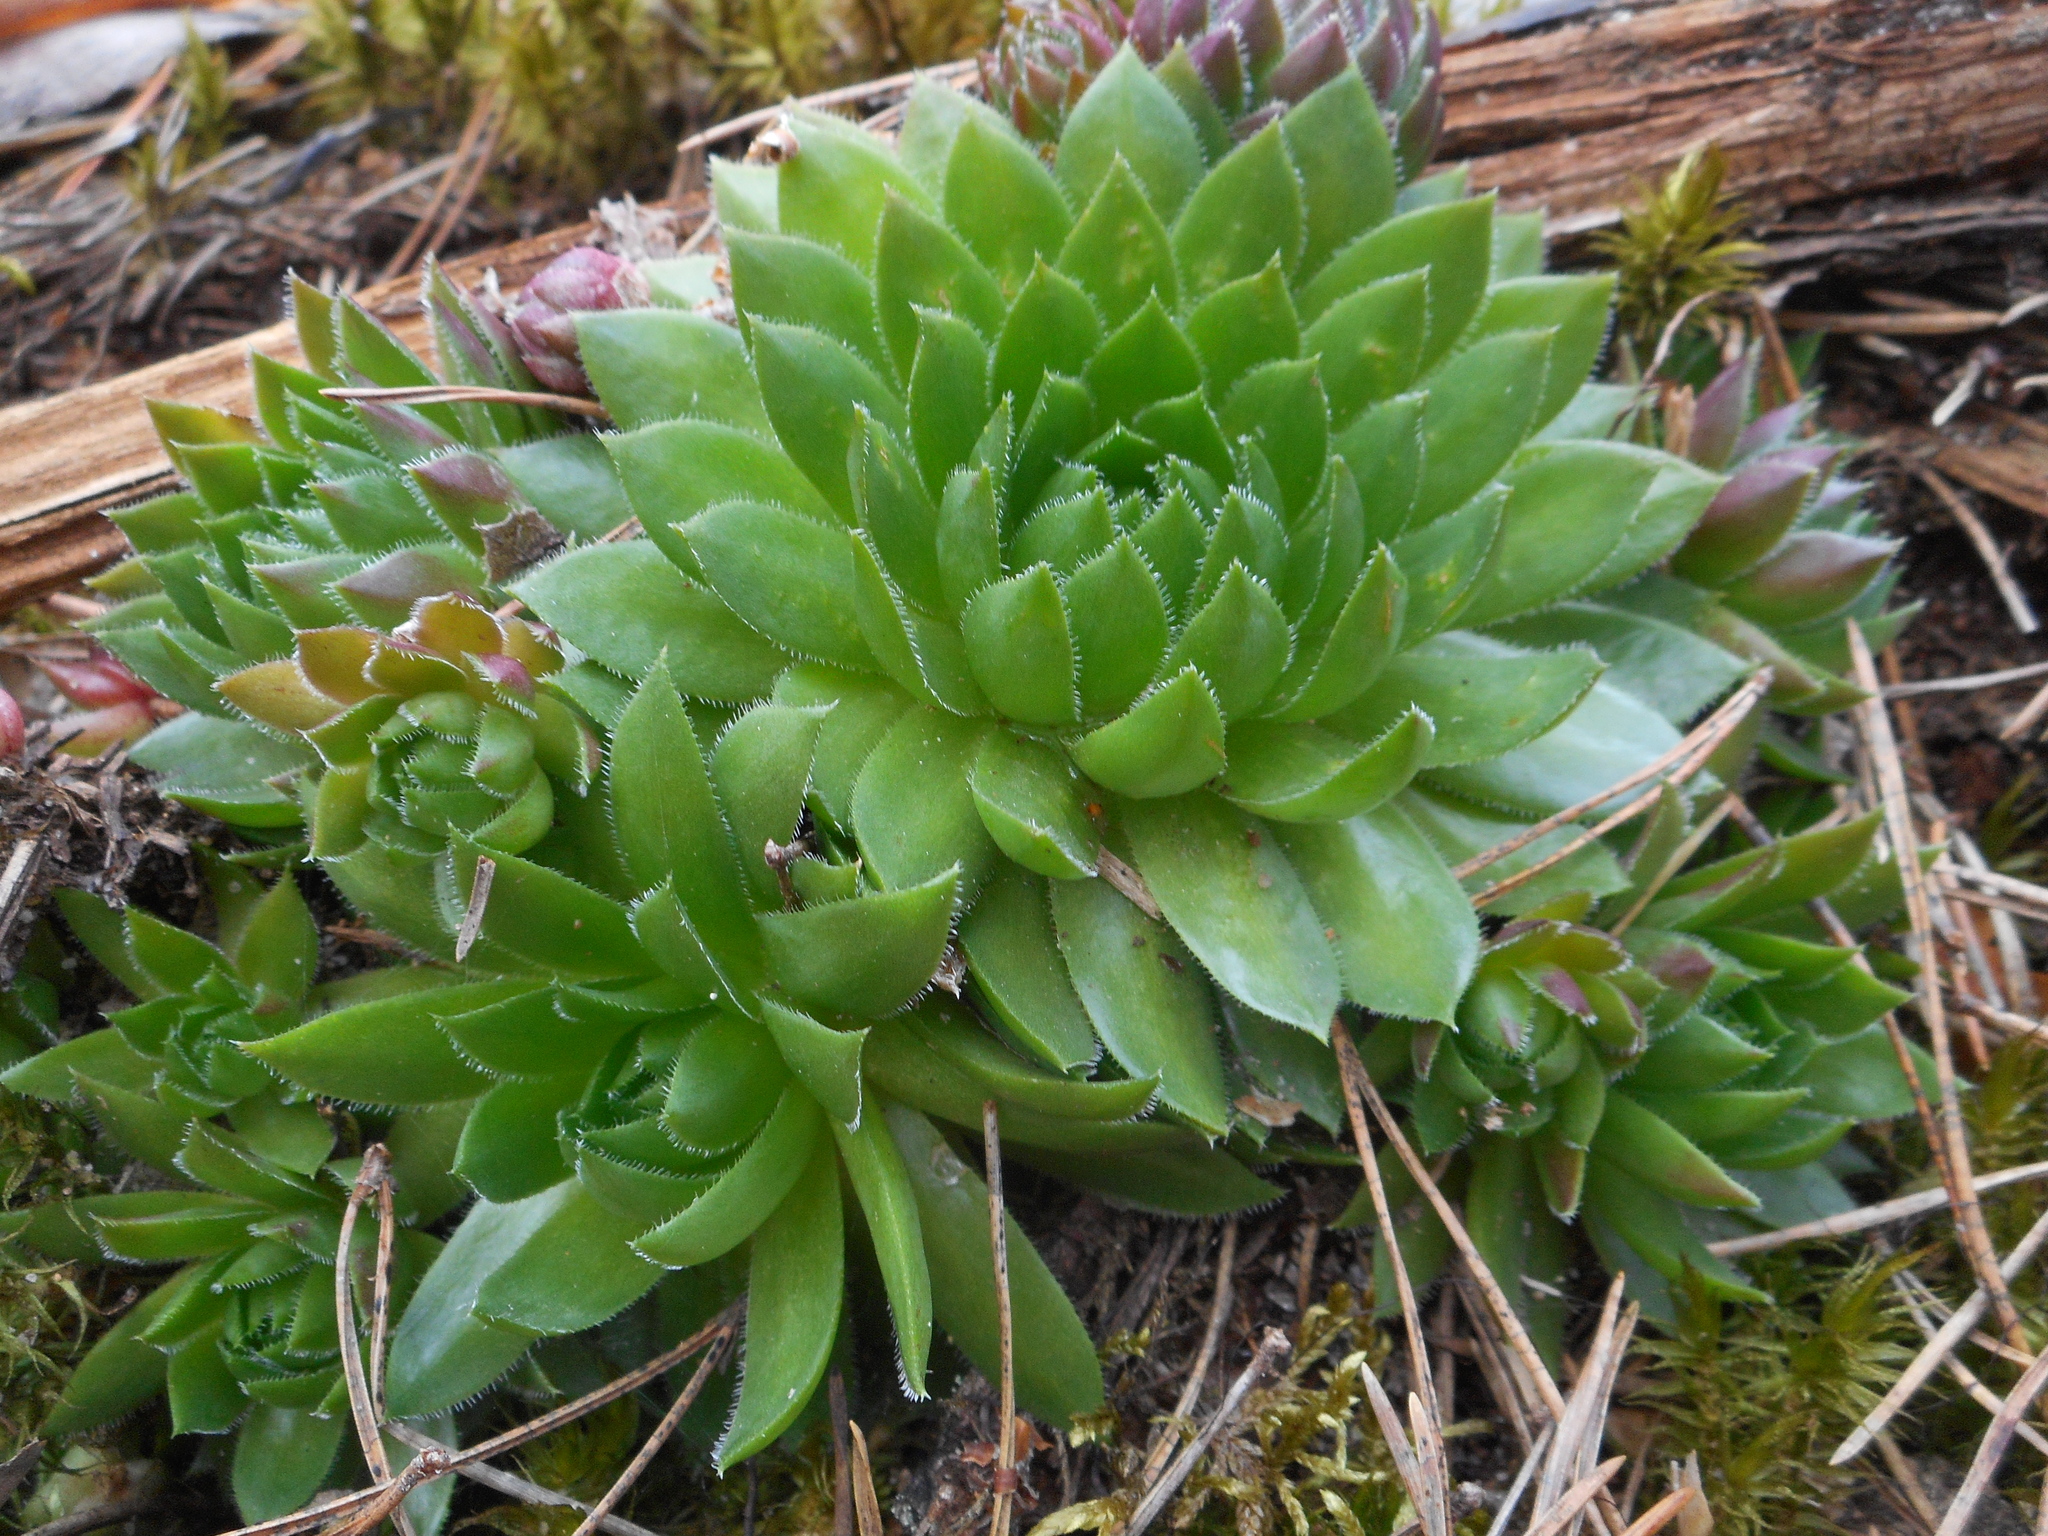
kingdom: Plantae
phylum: Tracheophyta
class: Magnoliopsida
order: Saxifragales
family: Crassulaceae
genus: Sempervivum
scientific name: Sempervivum globiferum
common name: Rolling hen-and-chicks
